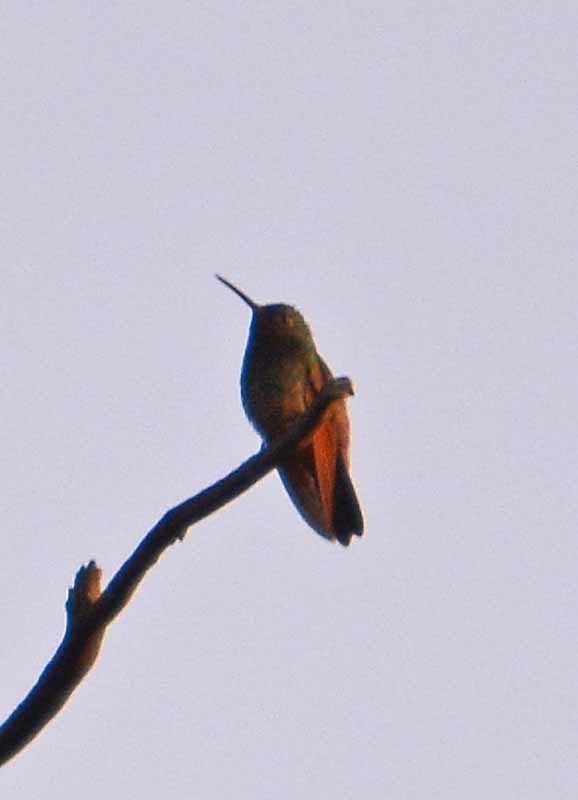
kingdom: Animalia
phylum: Chordata
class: Aves
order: Apodiformes
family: Trochilidae
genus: Saucerottia
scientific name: Saucerottia beryllina
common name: Berylline hummingbird
